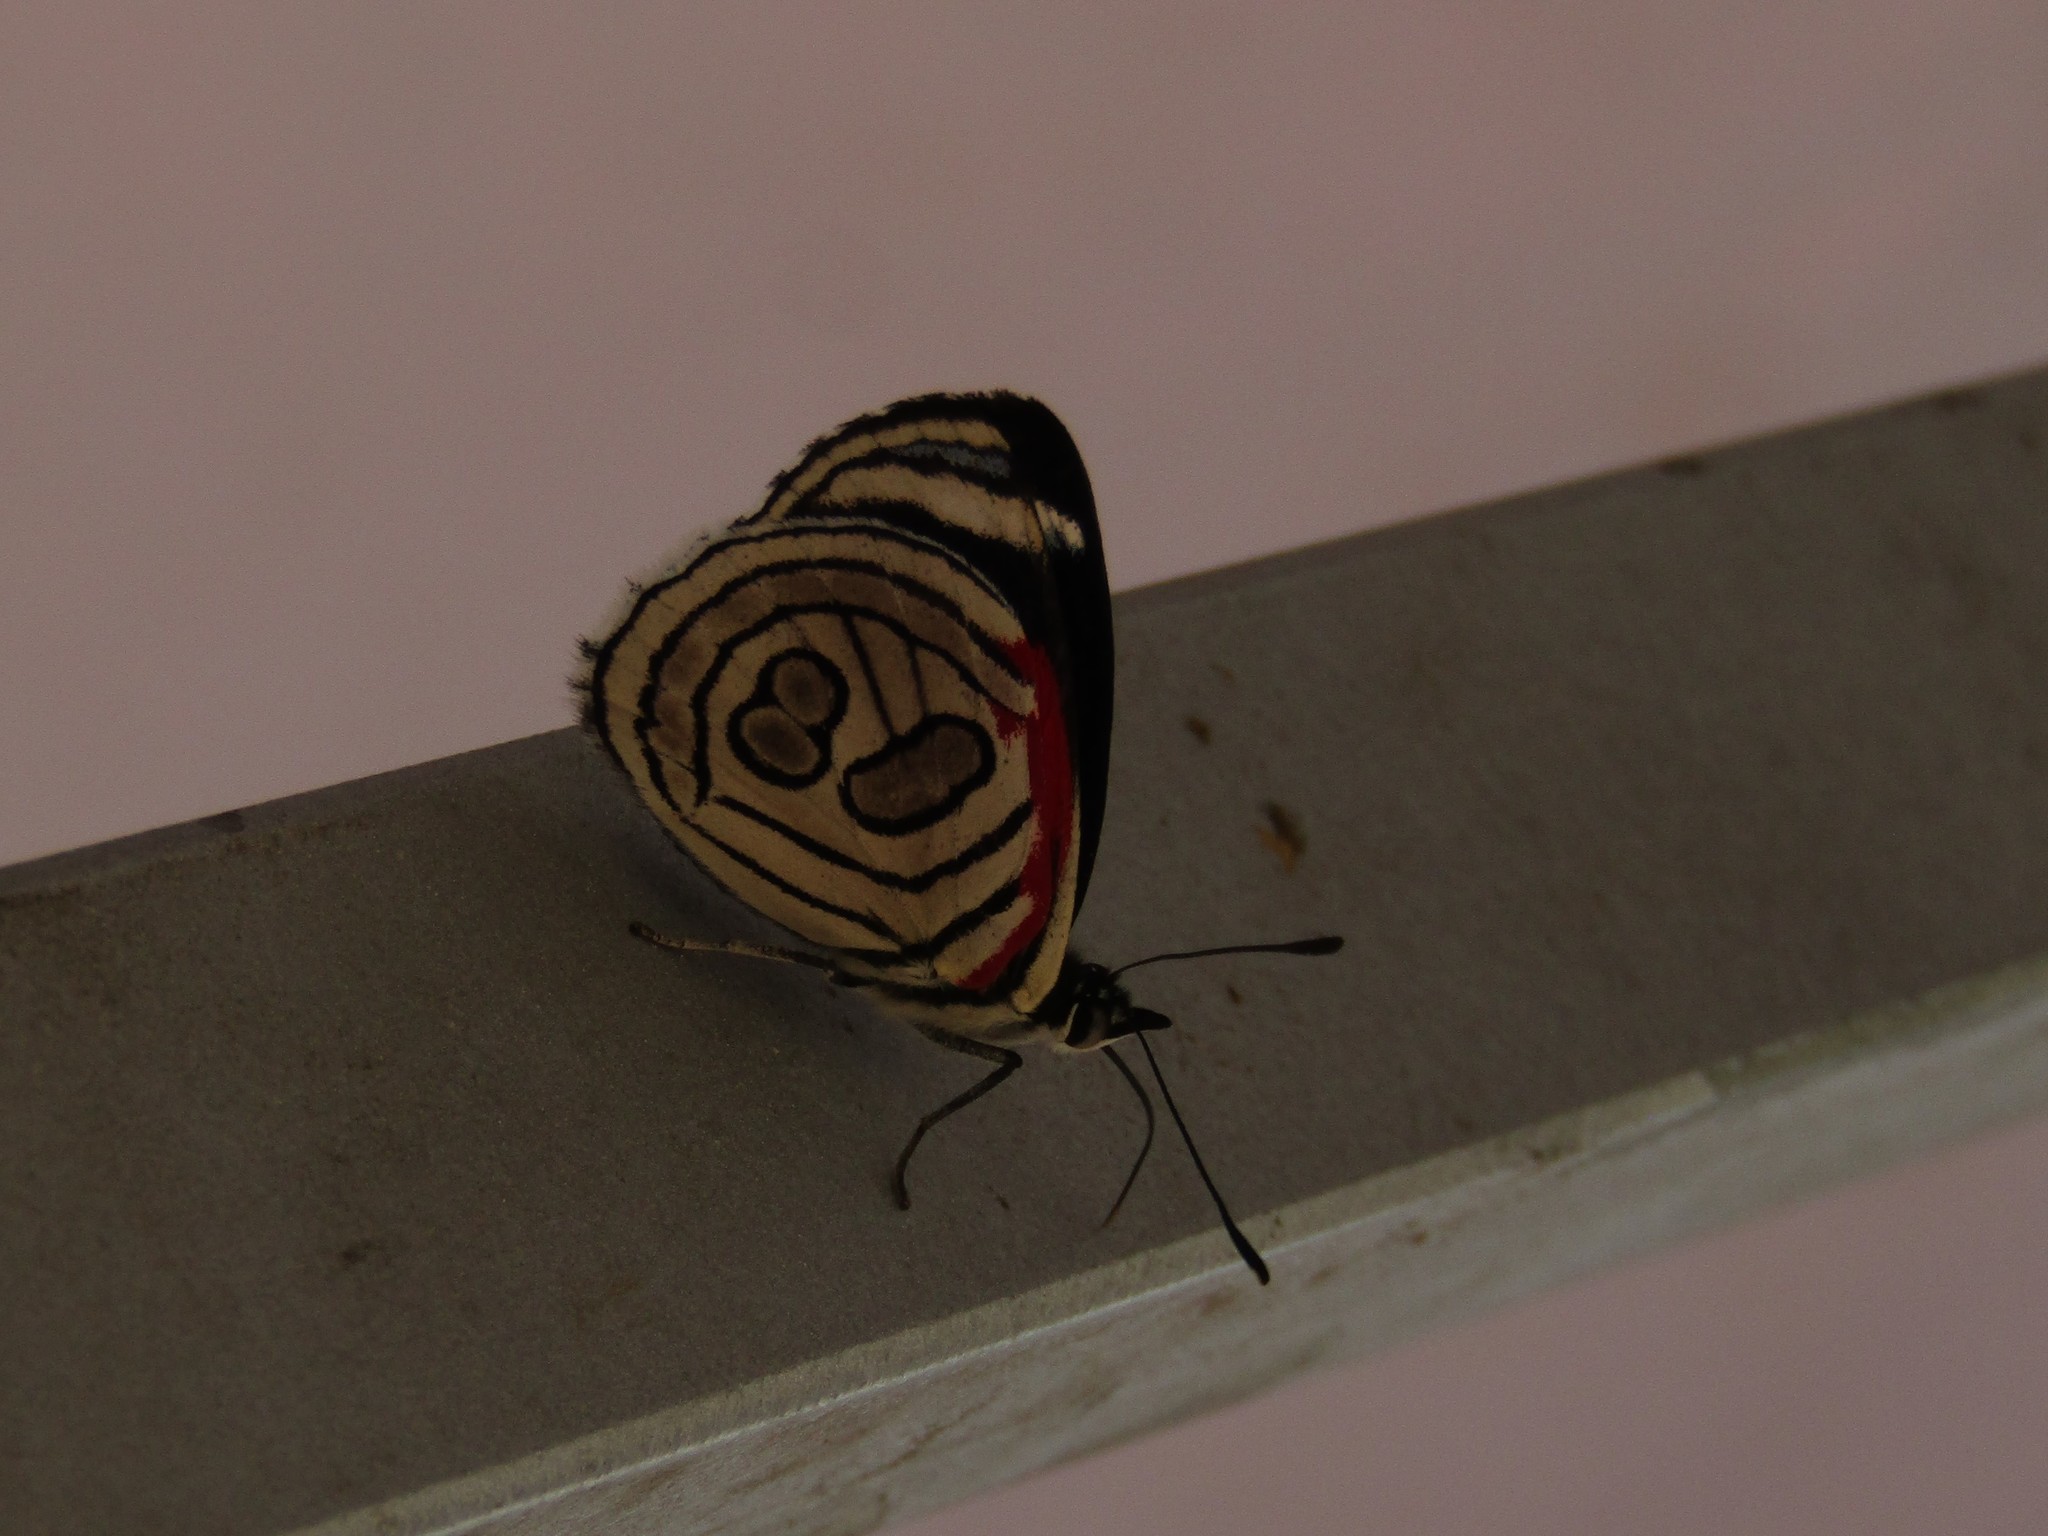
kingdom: Animalia
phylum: Arthropoda
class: Insecta
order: Lepidoptera
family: Nymphalidae
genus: Diaethria
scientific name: Diaethria candrena
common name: Number eighty
